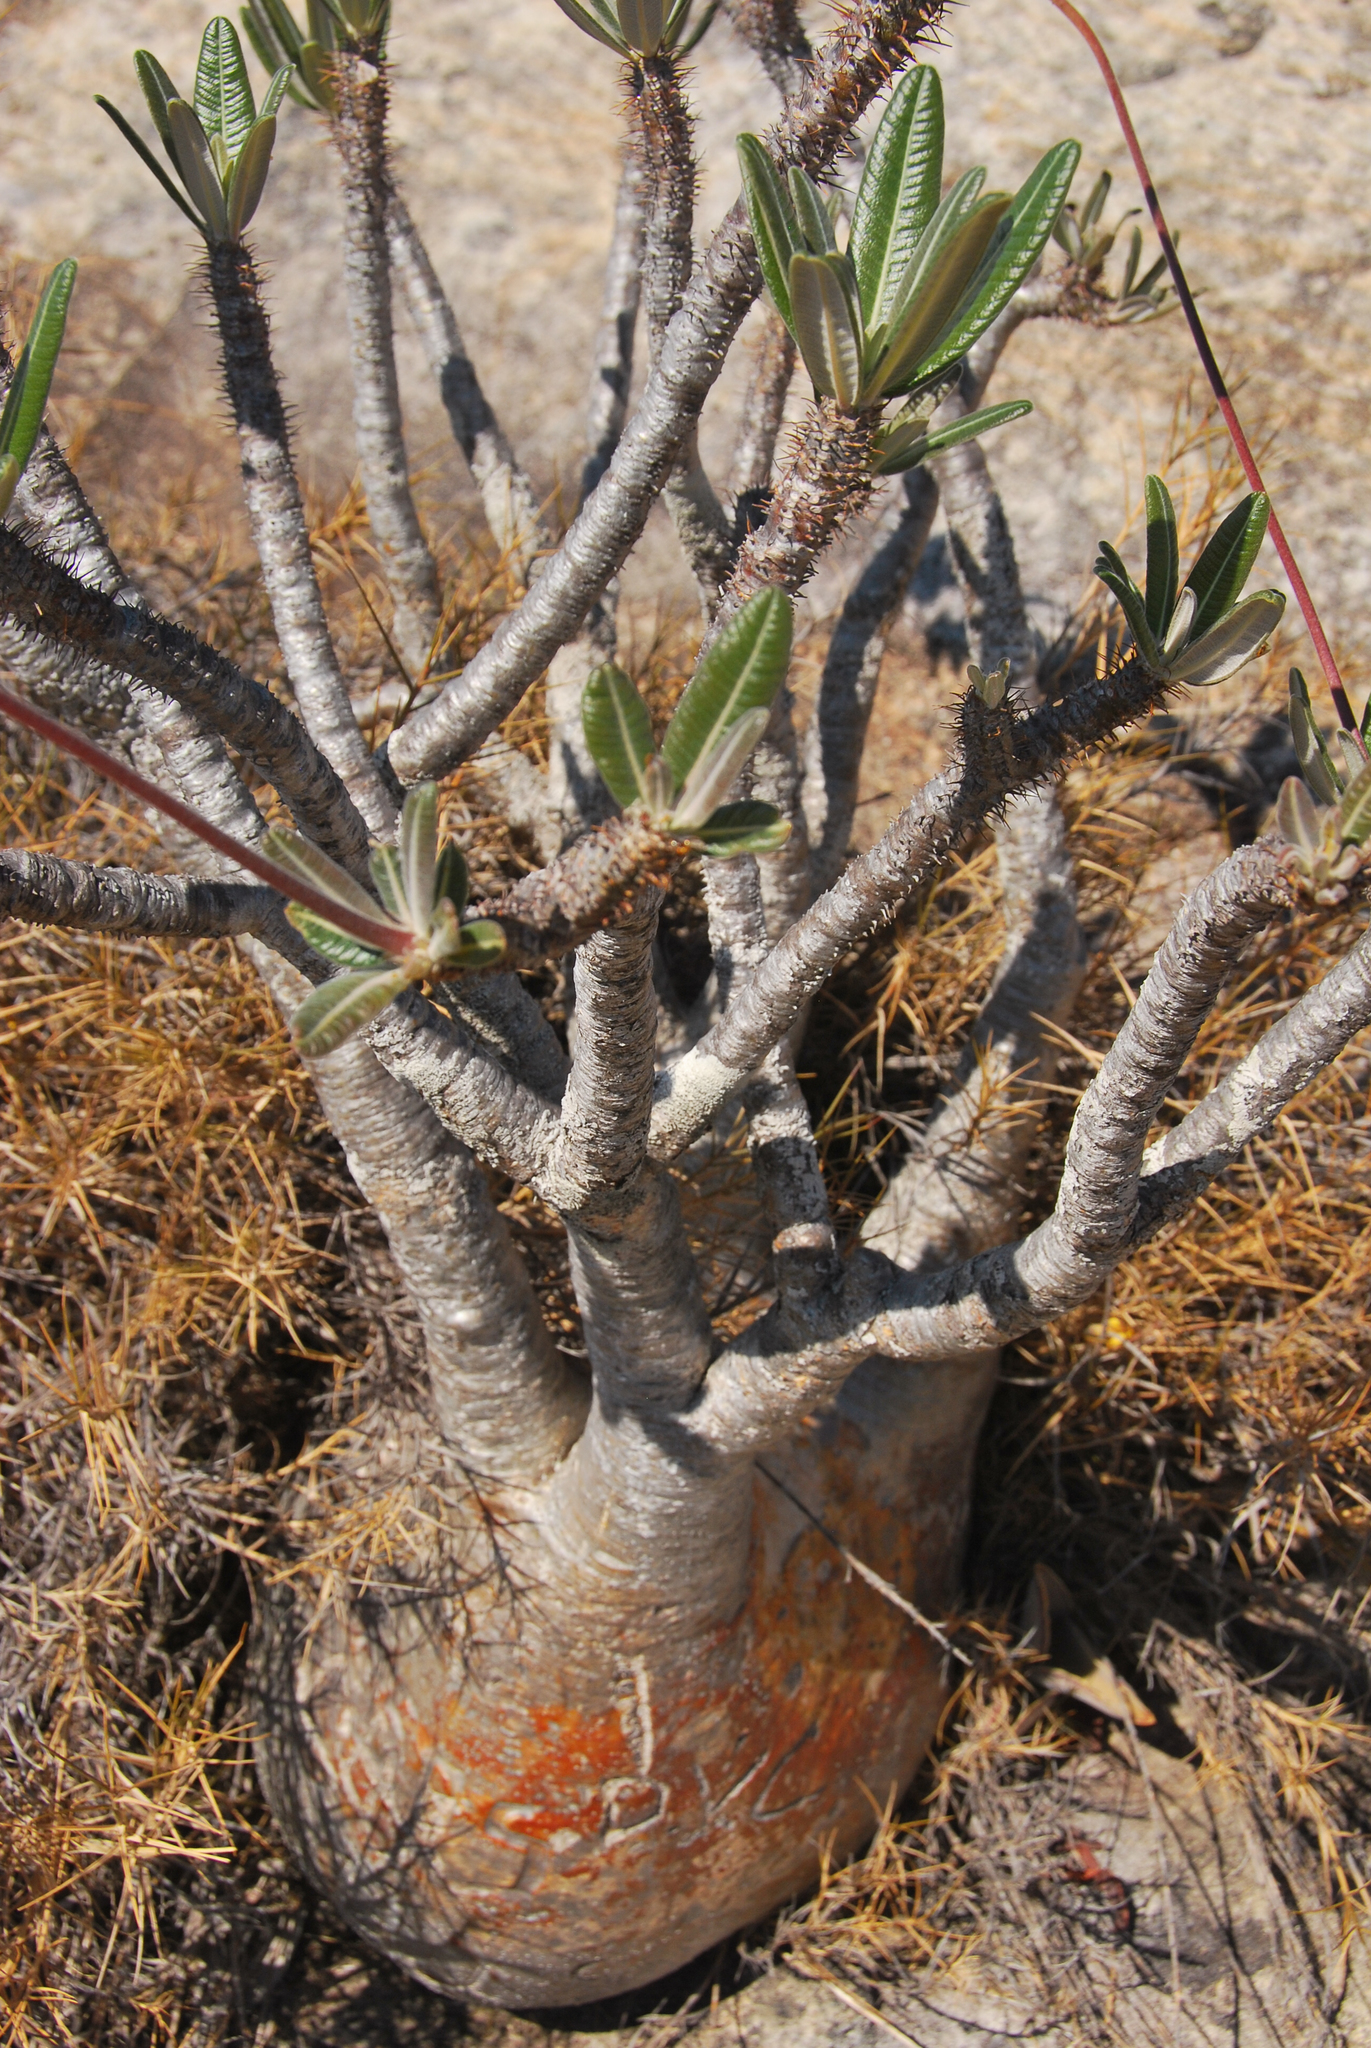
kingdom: Plantae
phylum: Tracheophyta
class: Magnoliopsida
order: Gentianales
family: Apocynaceae
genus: Pachypodium
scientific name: Pachypodium rosulatum
